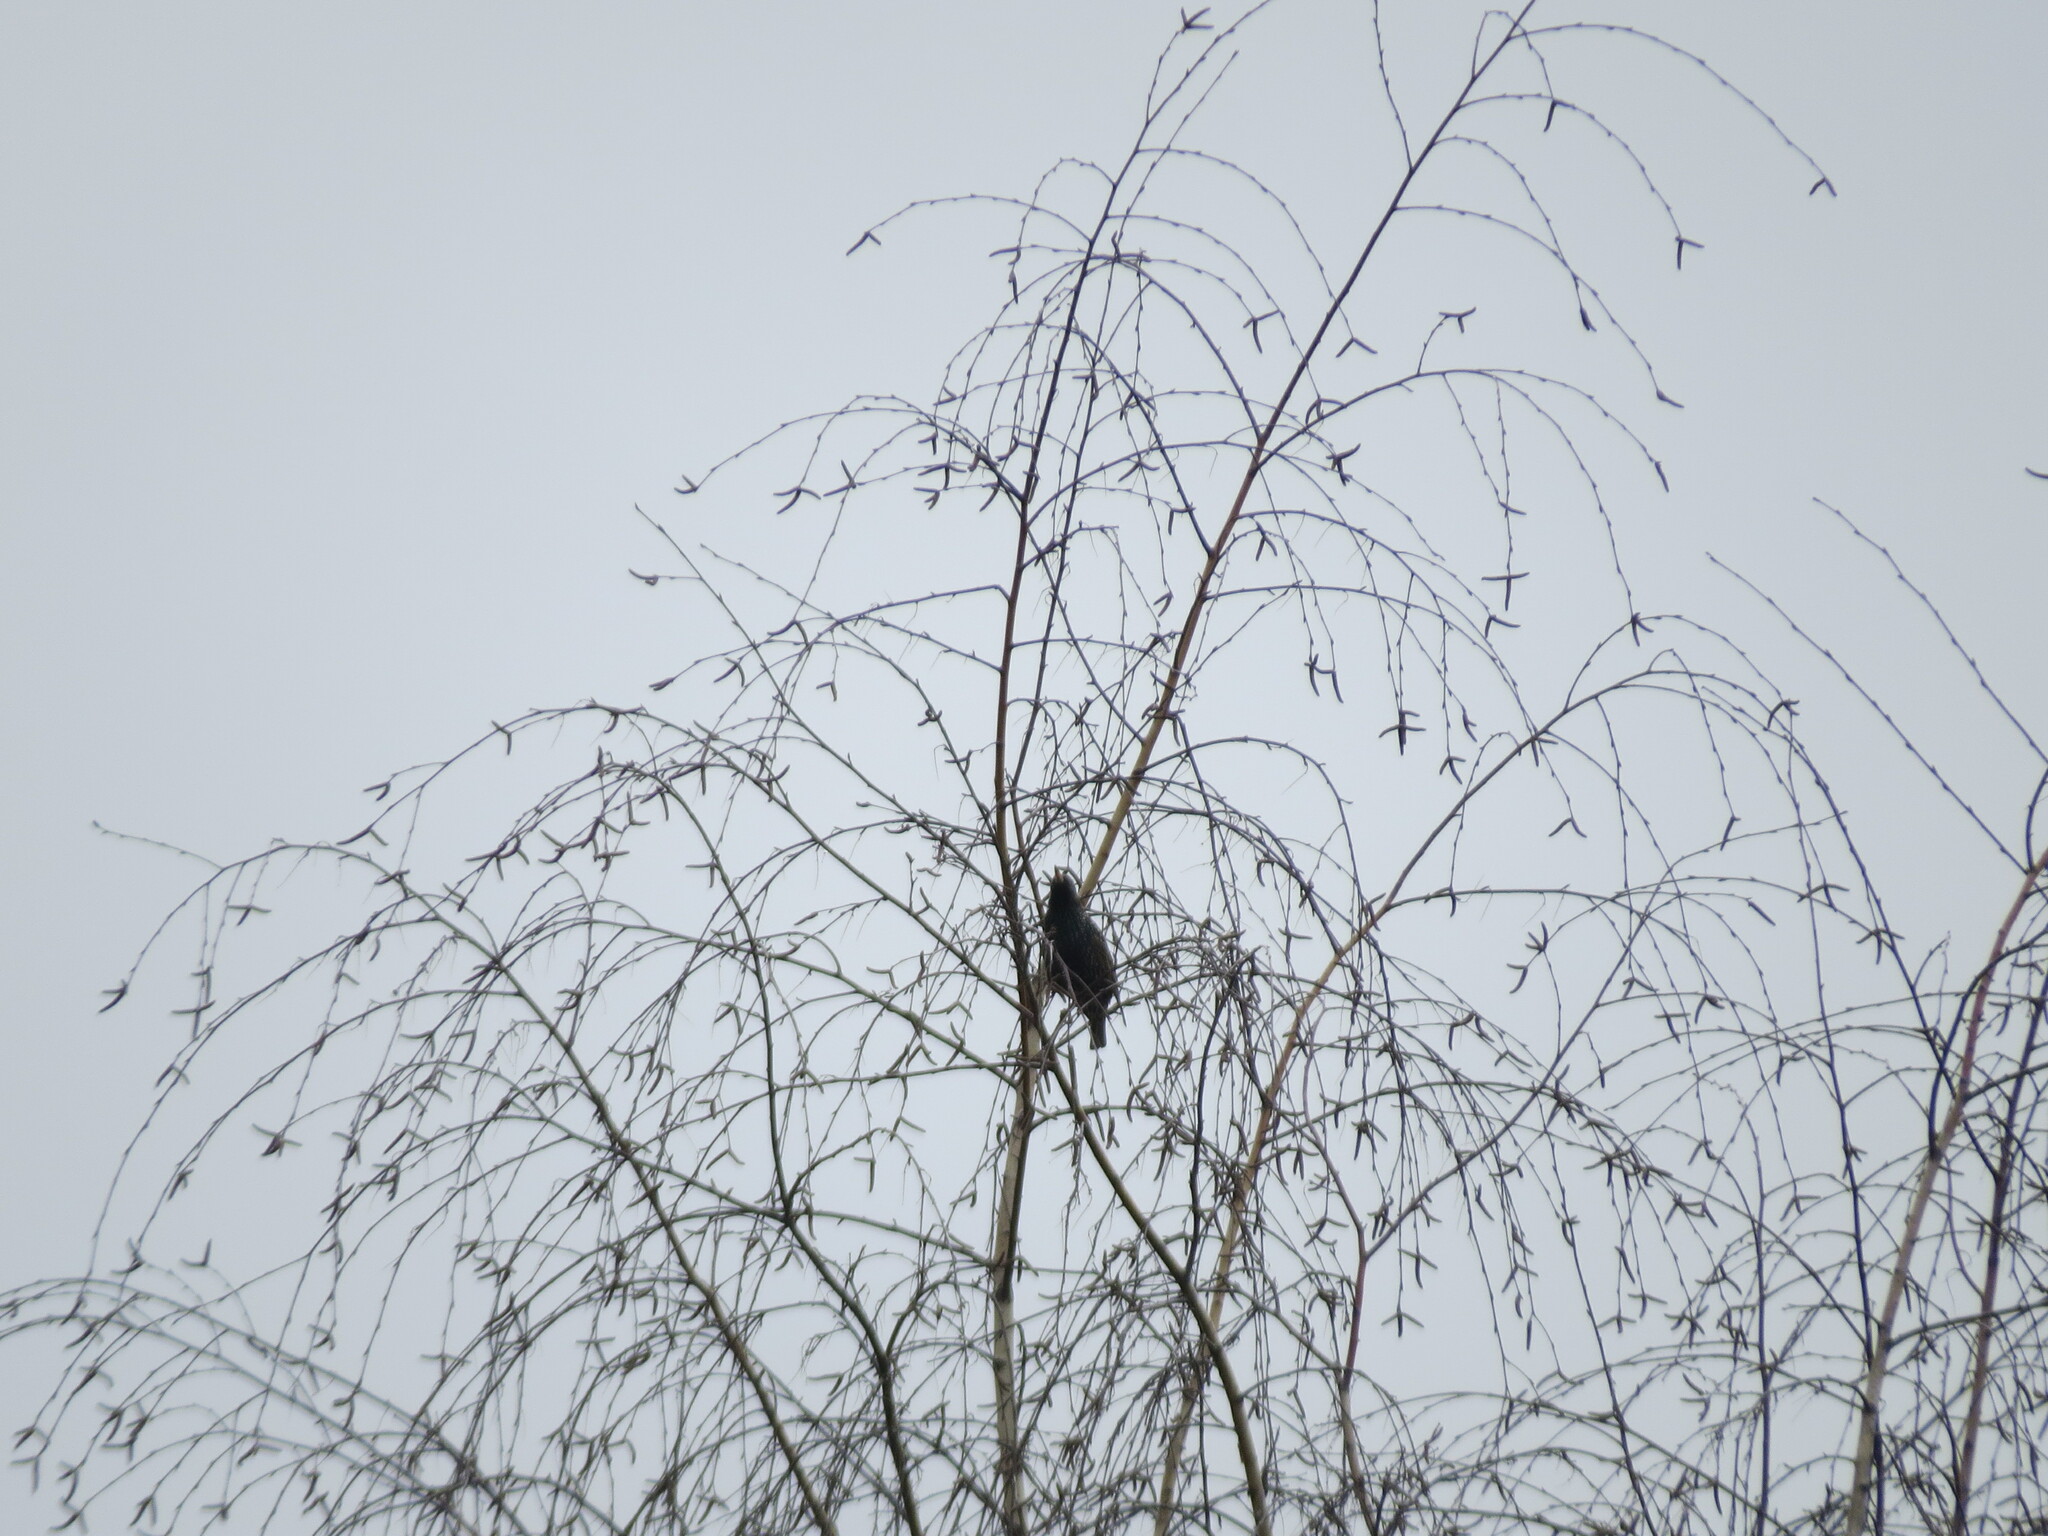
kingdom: Animalia
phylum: Chordata
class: Aves
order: Passeriformes
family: Sturnidae
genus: Sturnus
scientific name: Sturnus vulgaris
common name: Common starling
